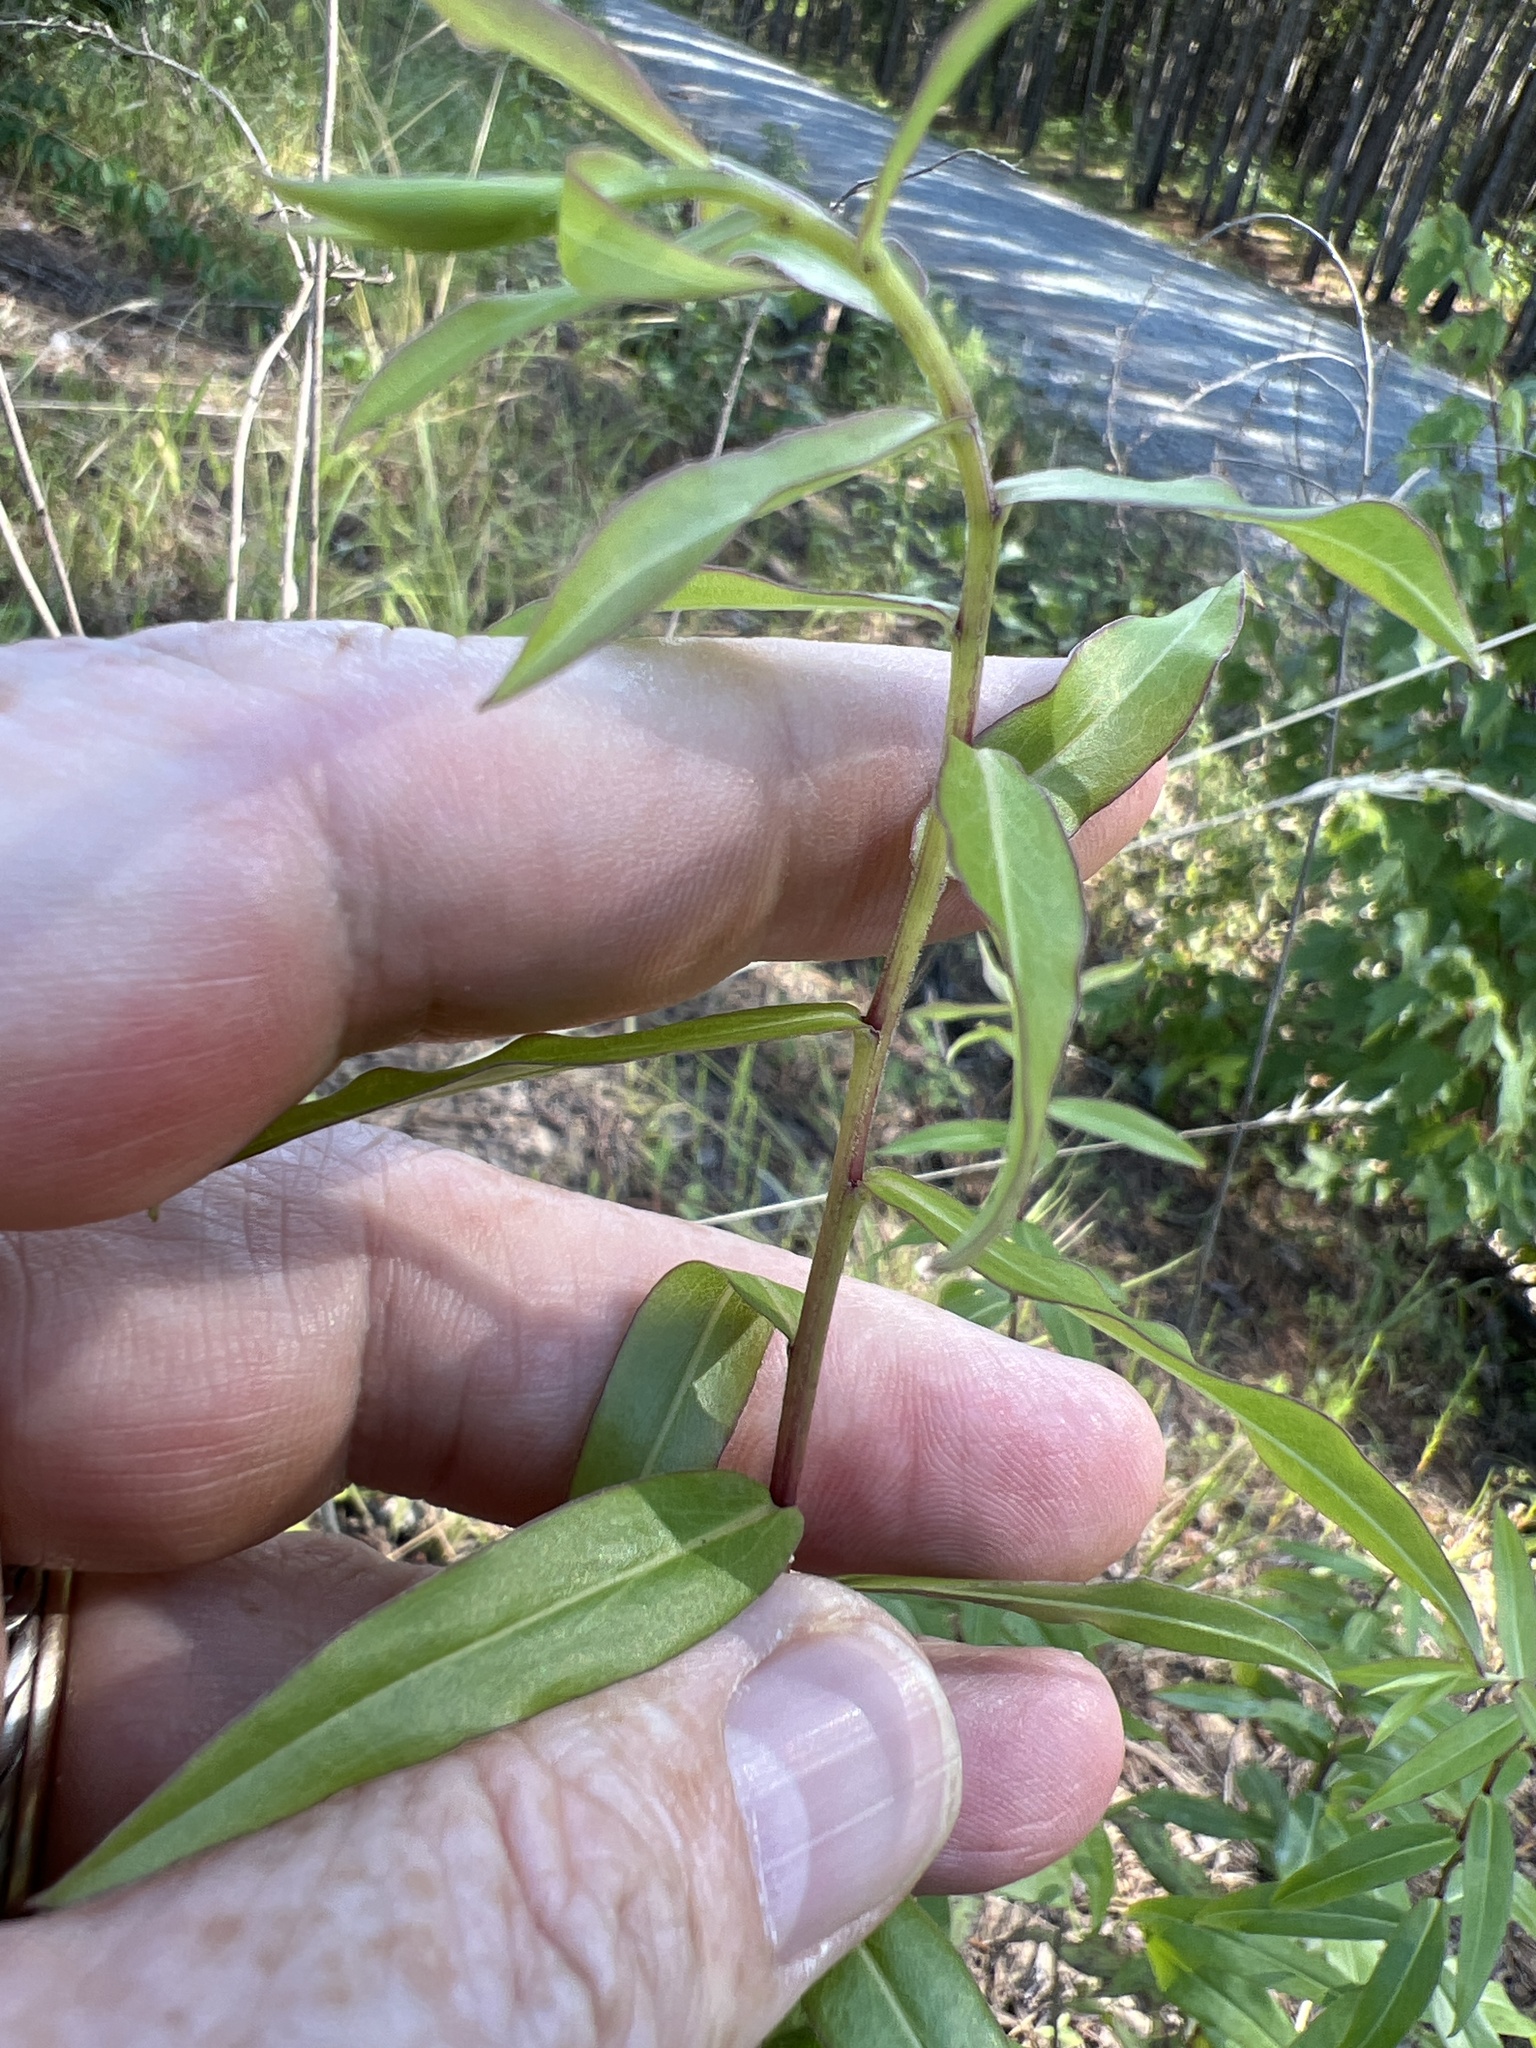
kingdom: Plantae
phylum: Tracheophyta
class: Magnoliopsida
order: Asterales
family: Asteraceae
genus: Solidago
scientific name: Solidago odora
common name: Anise-scented goldenrod
